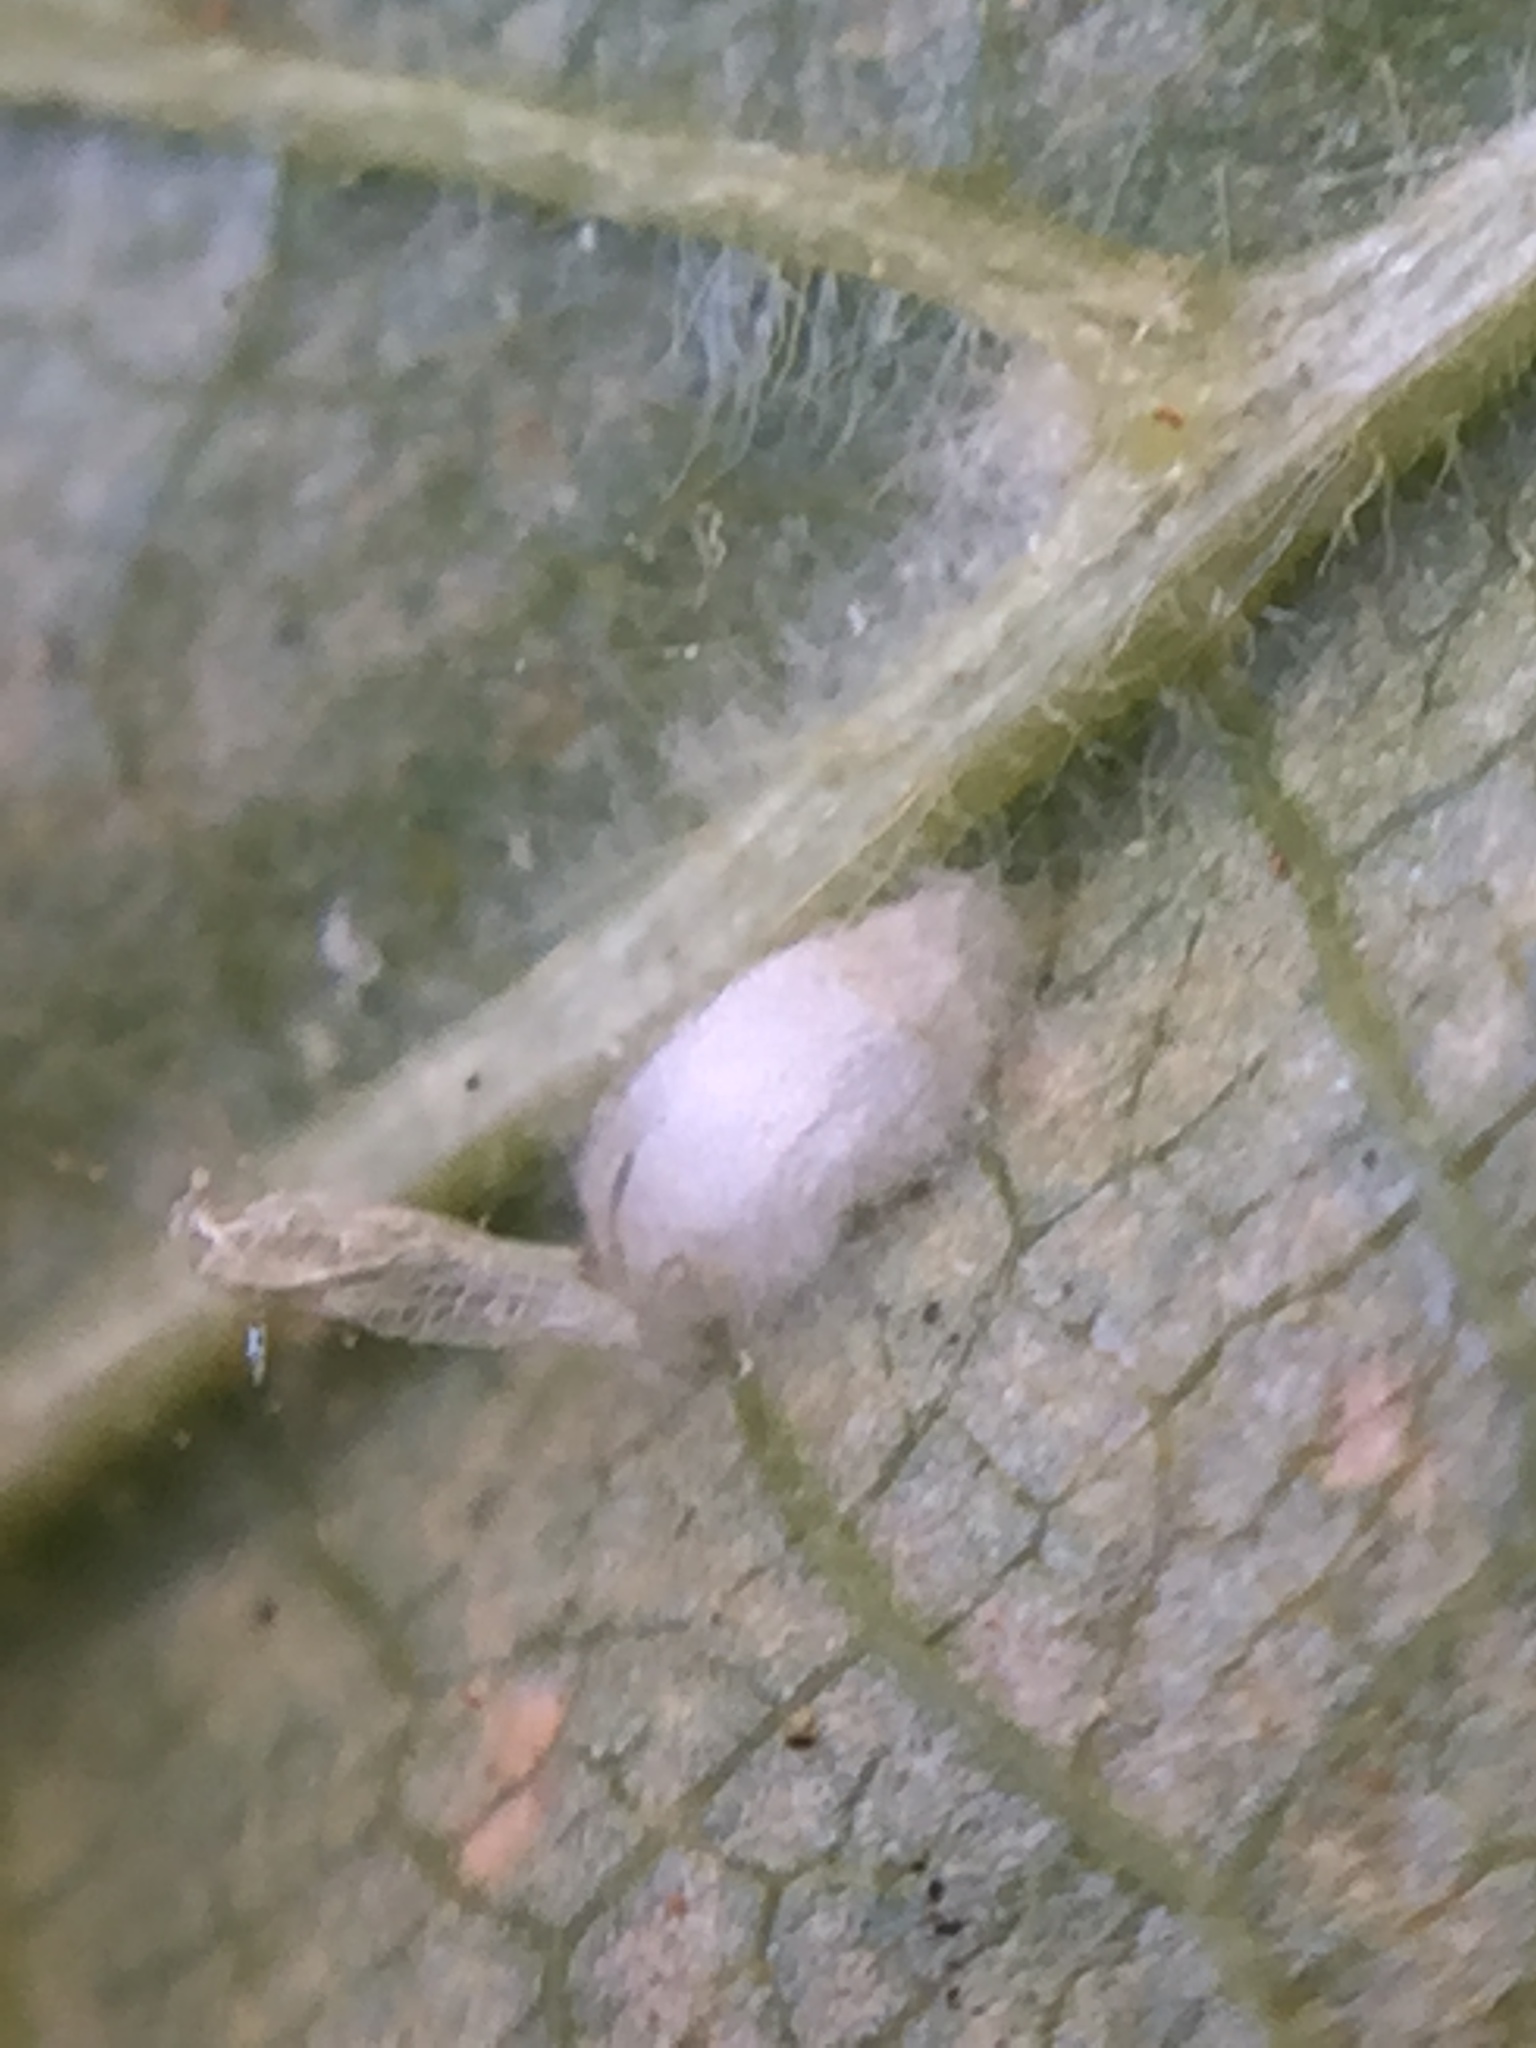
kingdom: Animalia
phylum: Arthropoda
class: Insecta
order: Lepidoptera
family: Nepticulidae
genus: Stigmella
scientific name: Stigmella microtheriella
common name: Nut-tree pigmy
